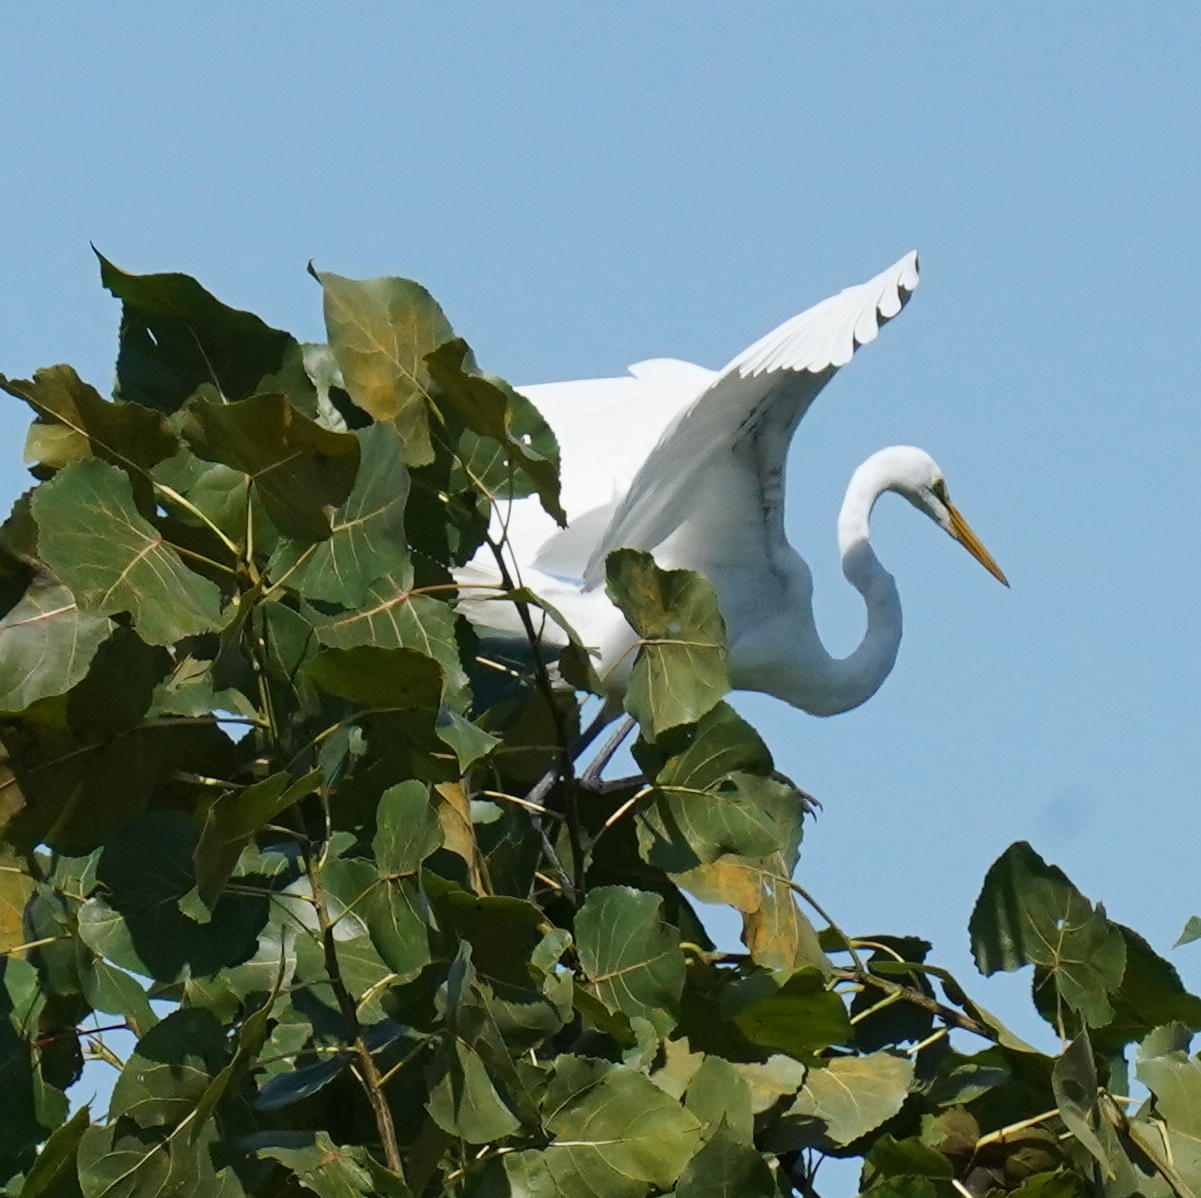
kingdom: Animalia
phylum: Chordata
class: Aves
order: Pelecaniformes
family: Ardeidae
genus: Ardea
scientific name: Ardea alba
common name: Great egret
